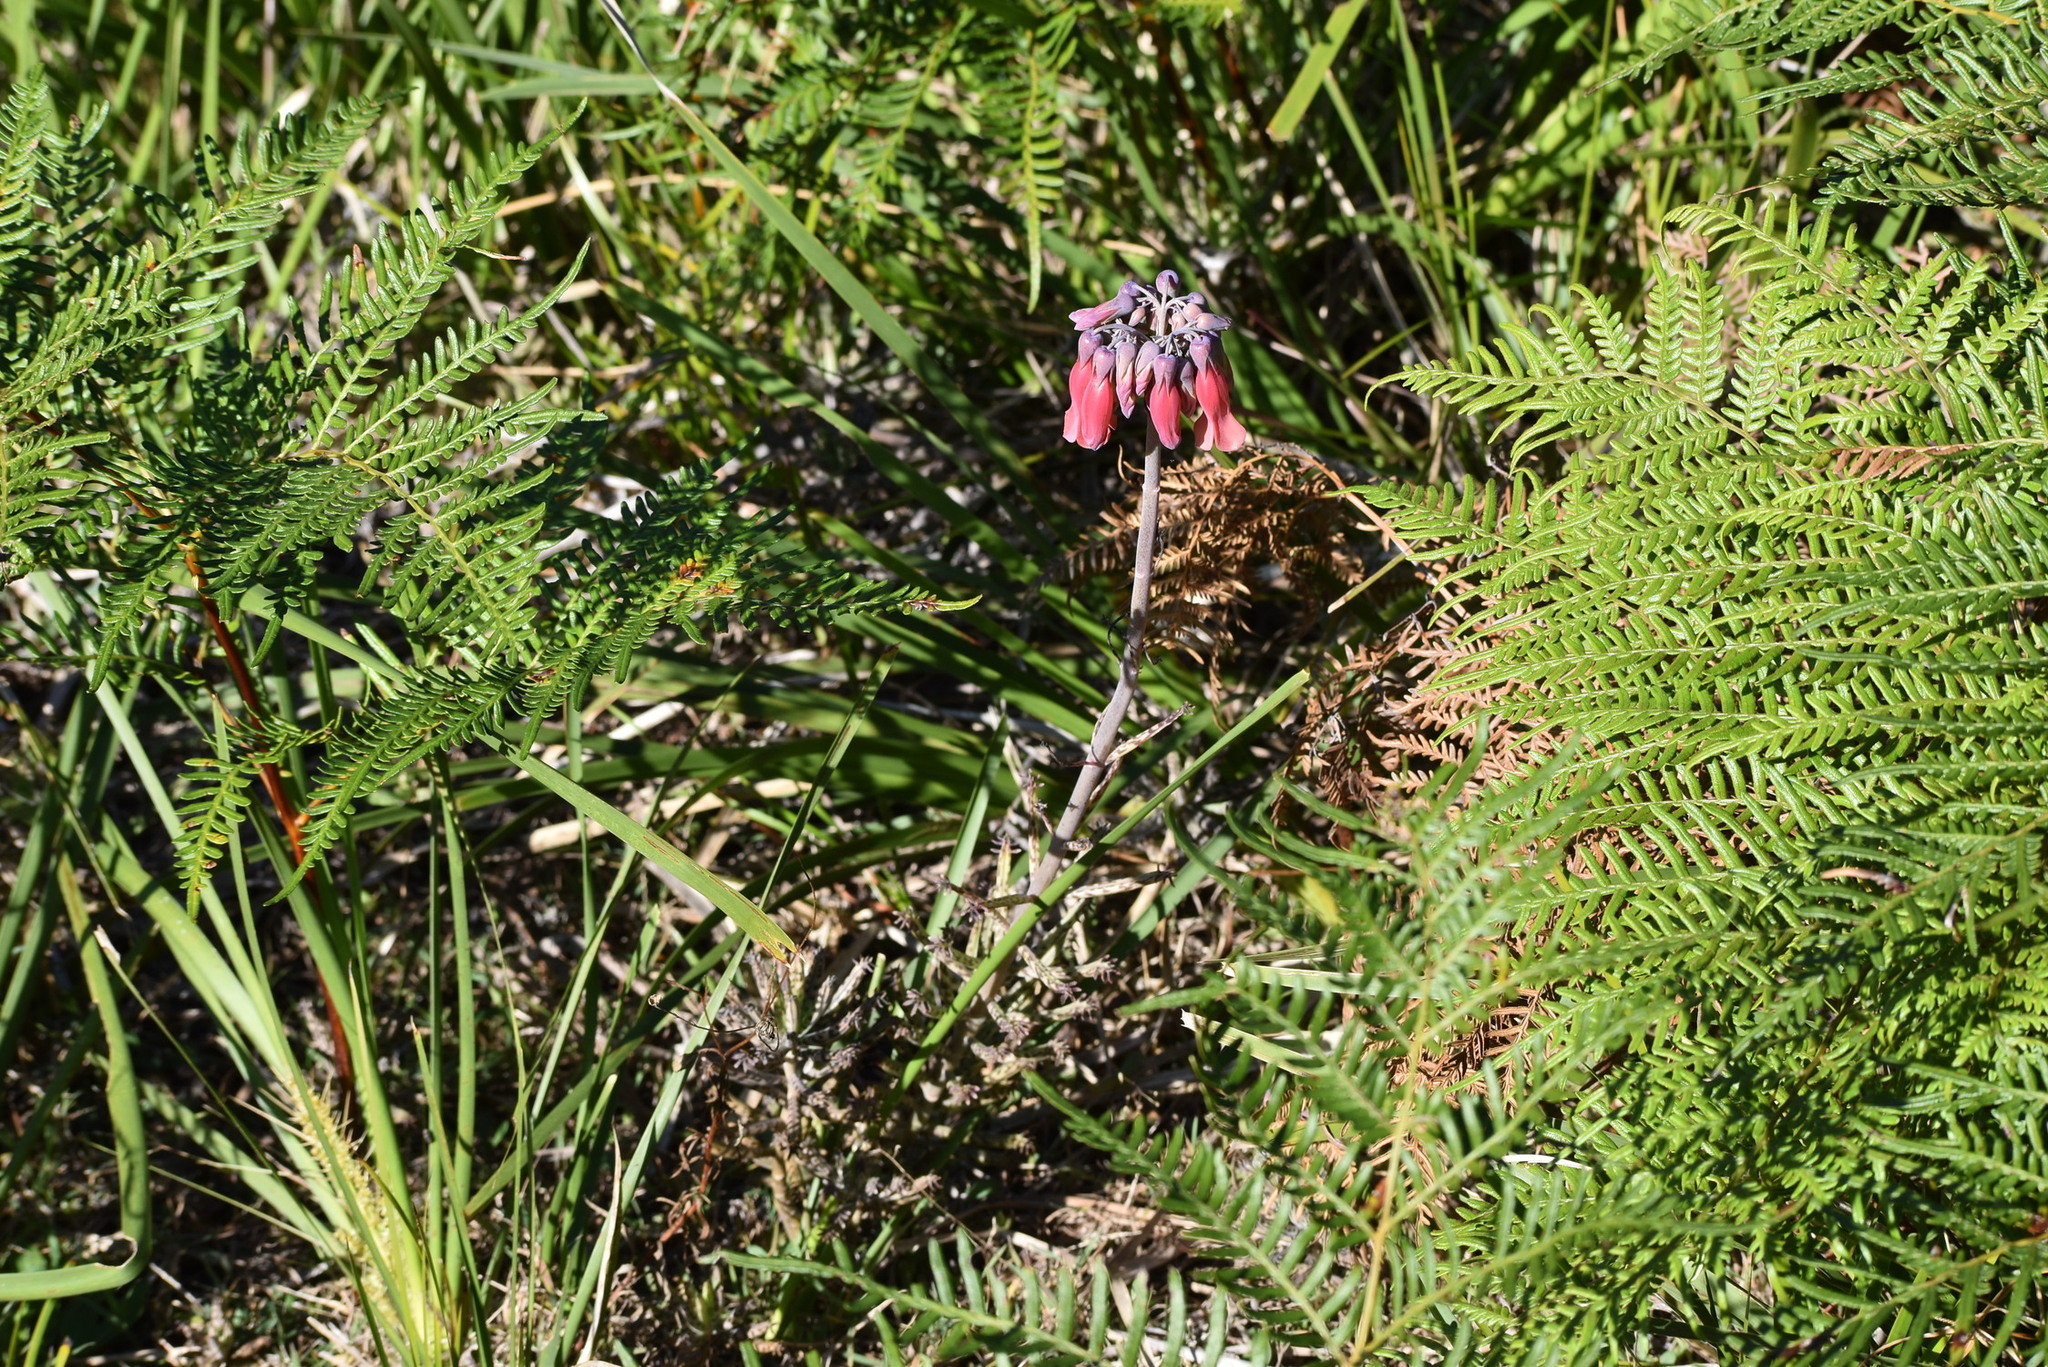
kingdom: Plantae
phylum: Tracheophyta
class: Magnoliopsida
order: Saxifragales
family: Crassulaceae
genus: Kalanchoe
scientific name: Kalanchoe delagoensis
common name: Chandelier plant
